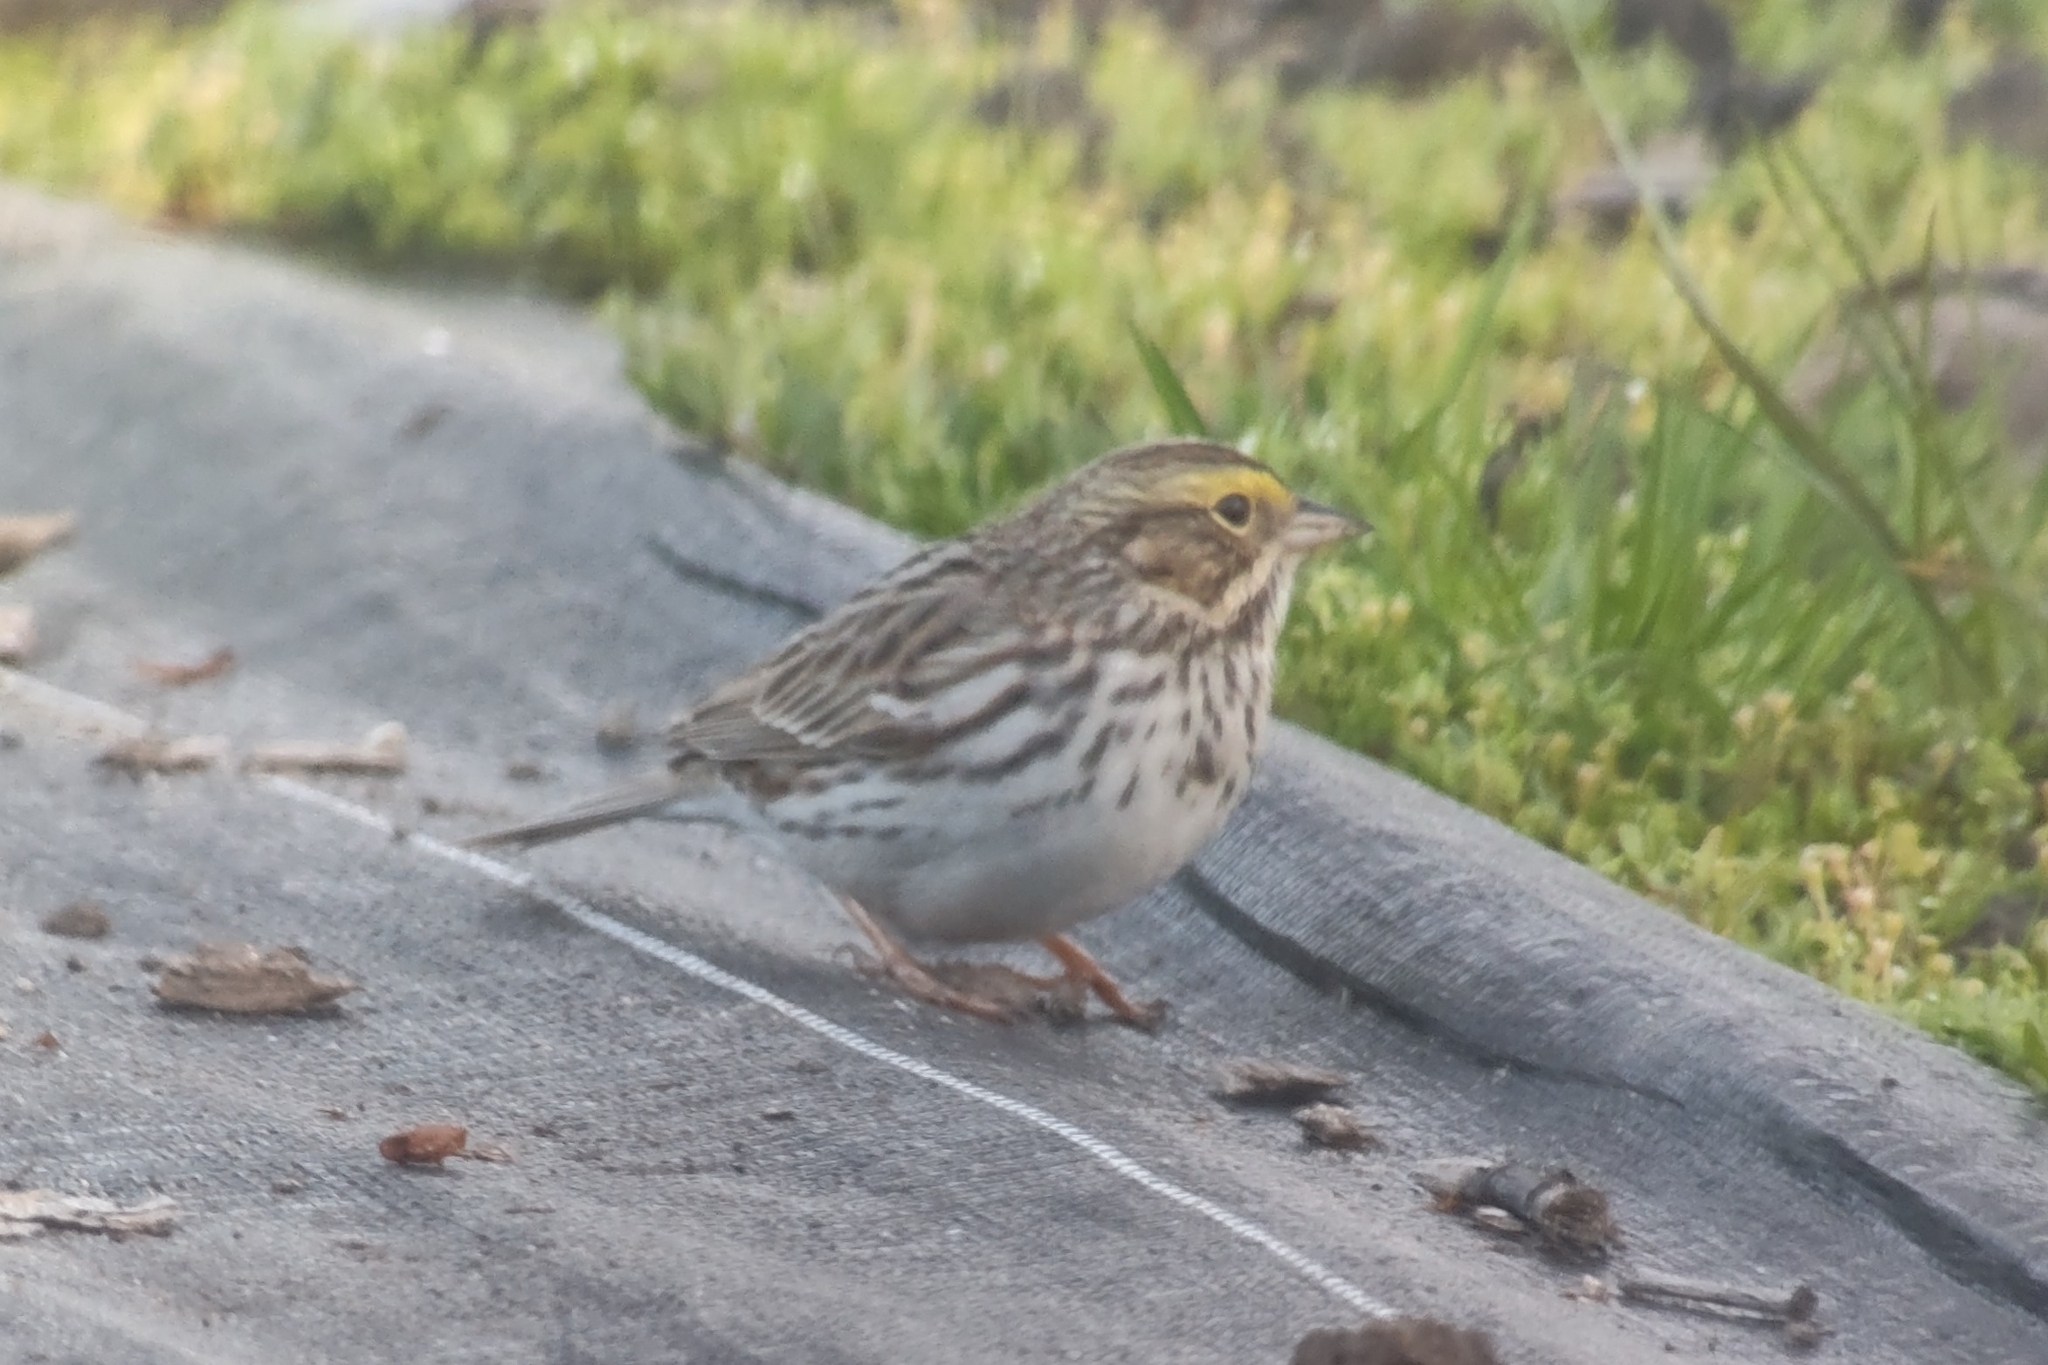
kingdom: Animalia
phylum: Chordata
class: Aves
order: Passeriformes
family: Passerellidae
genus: Passerculus
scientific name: Passerculus sandwichensis
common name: Savannah sparrow
